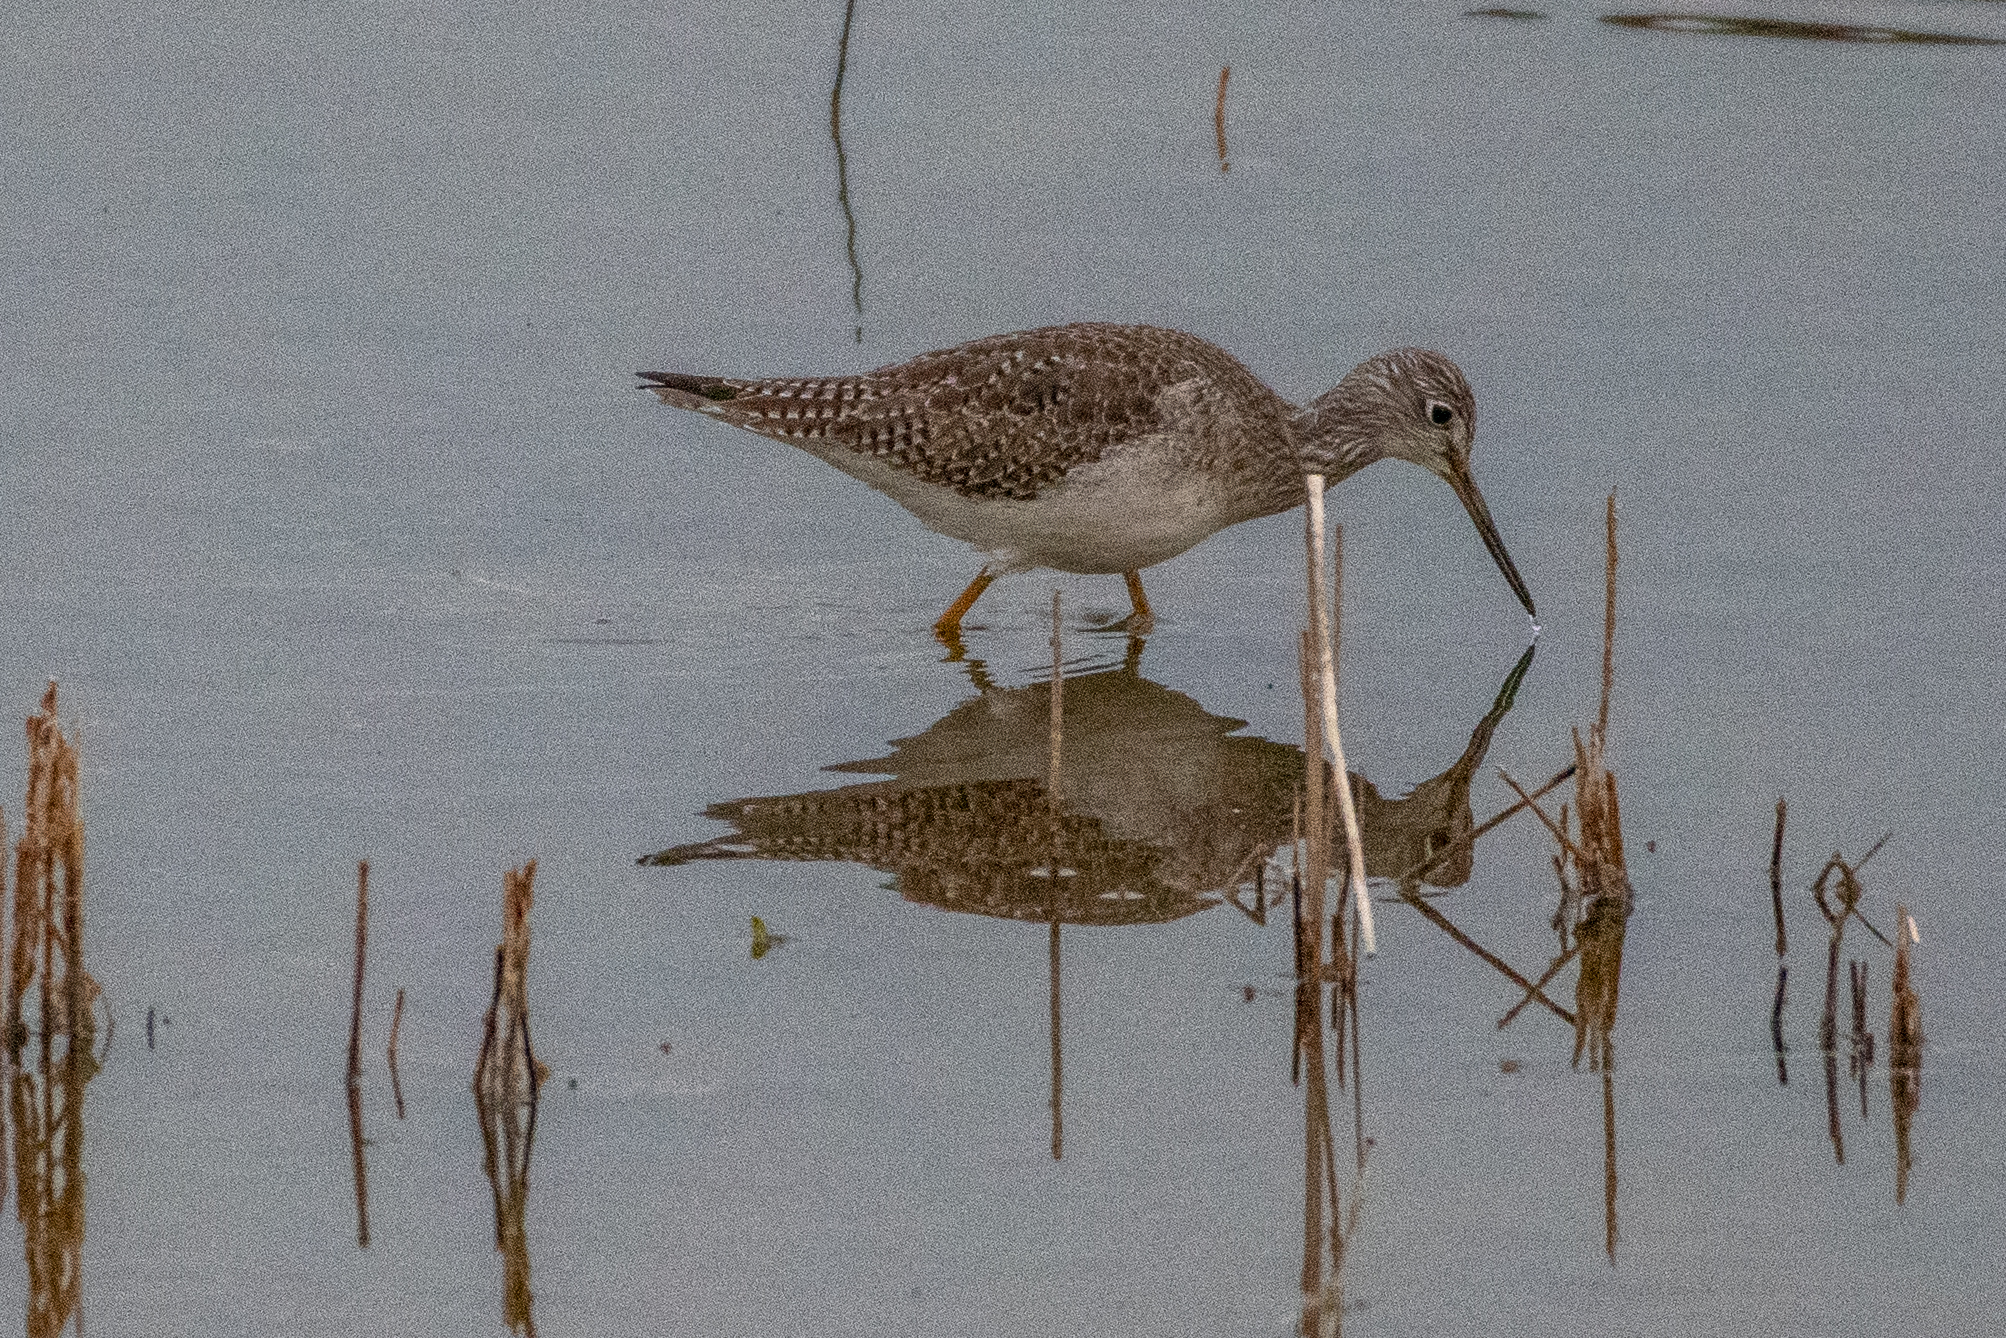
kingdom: Animalia
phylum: Chordata
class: Aves
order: Charadriiformes
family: Scolopacidae
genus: Tringa
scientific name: Tringa melanoleuca
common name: Greater yellowlegs
